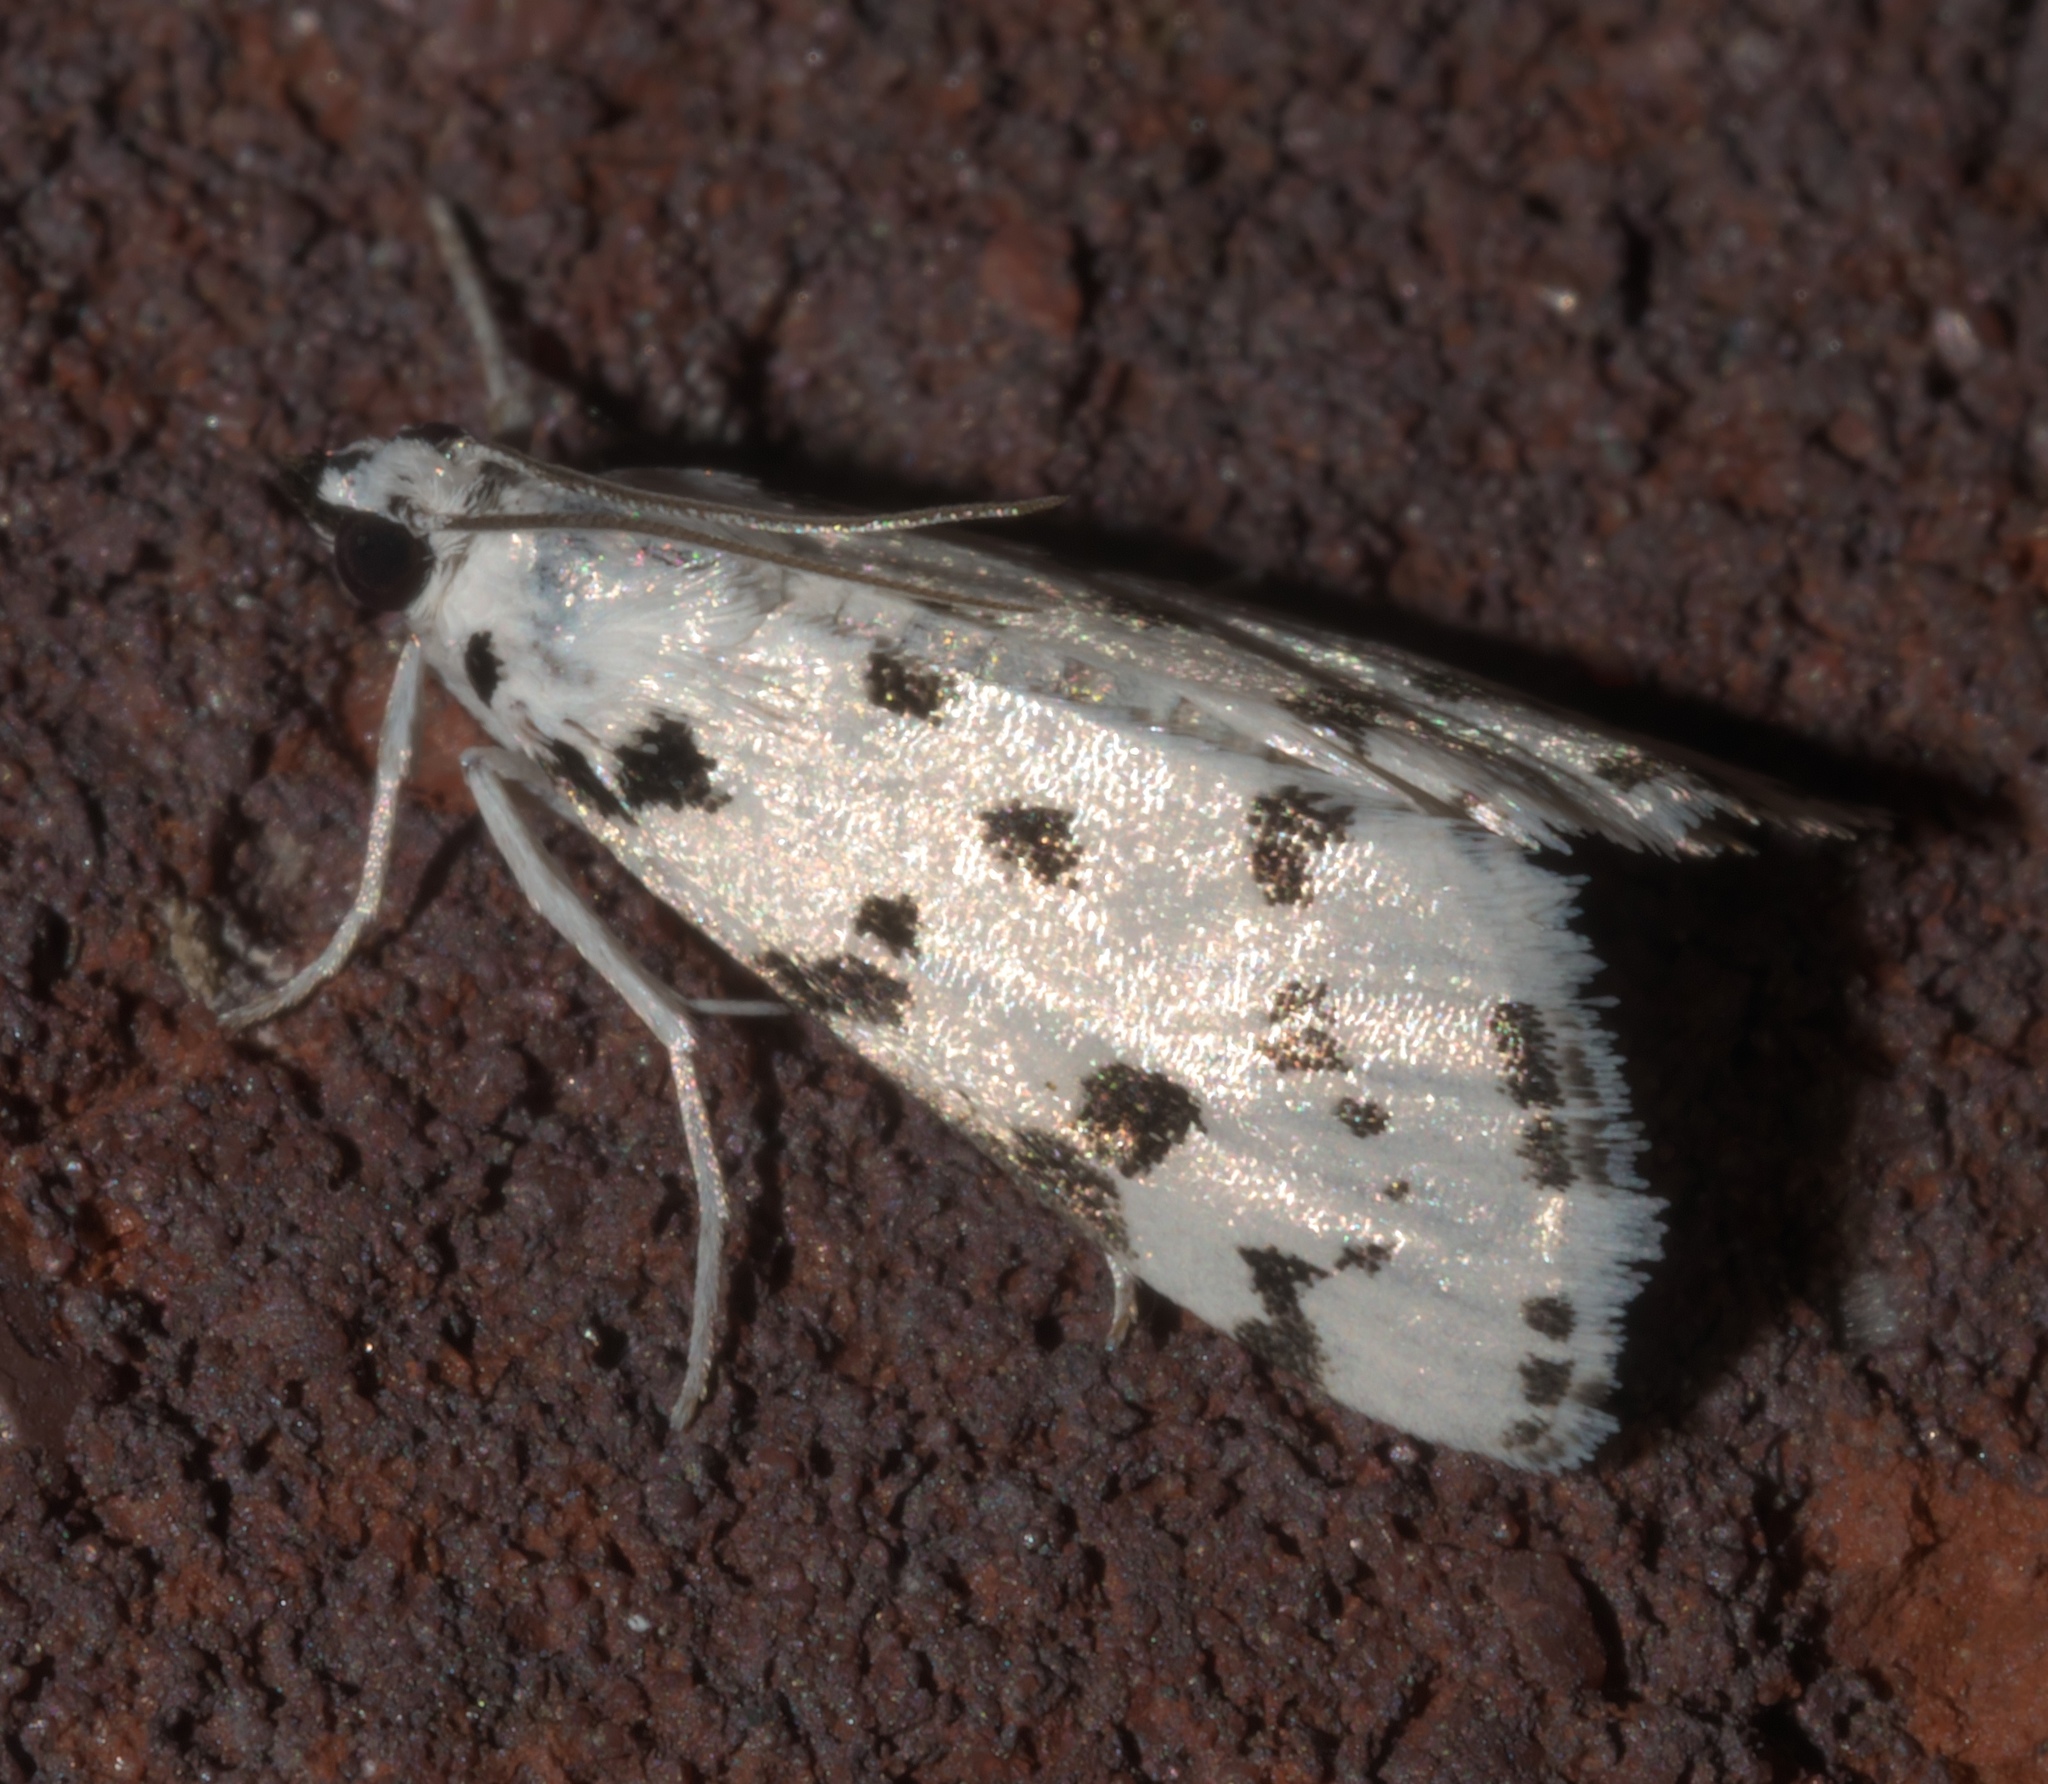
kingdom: Animalia
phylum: Arthropoda
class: Insecta
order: Lepidoptera
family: Crambidae
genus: Eustixia
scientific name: Eustixia pupula
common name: American cabbage pearl
